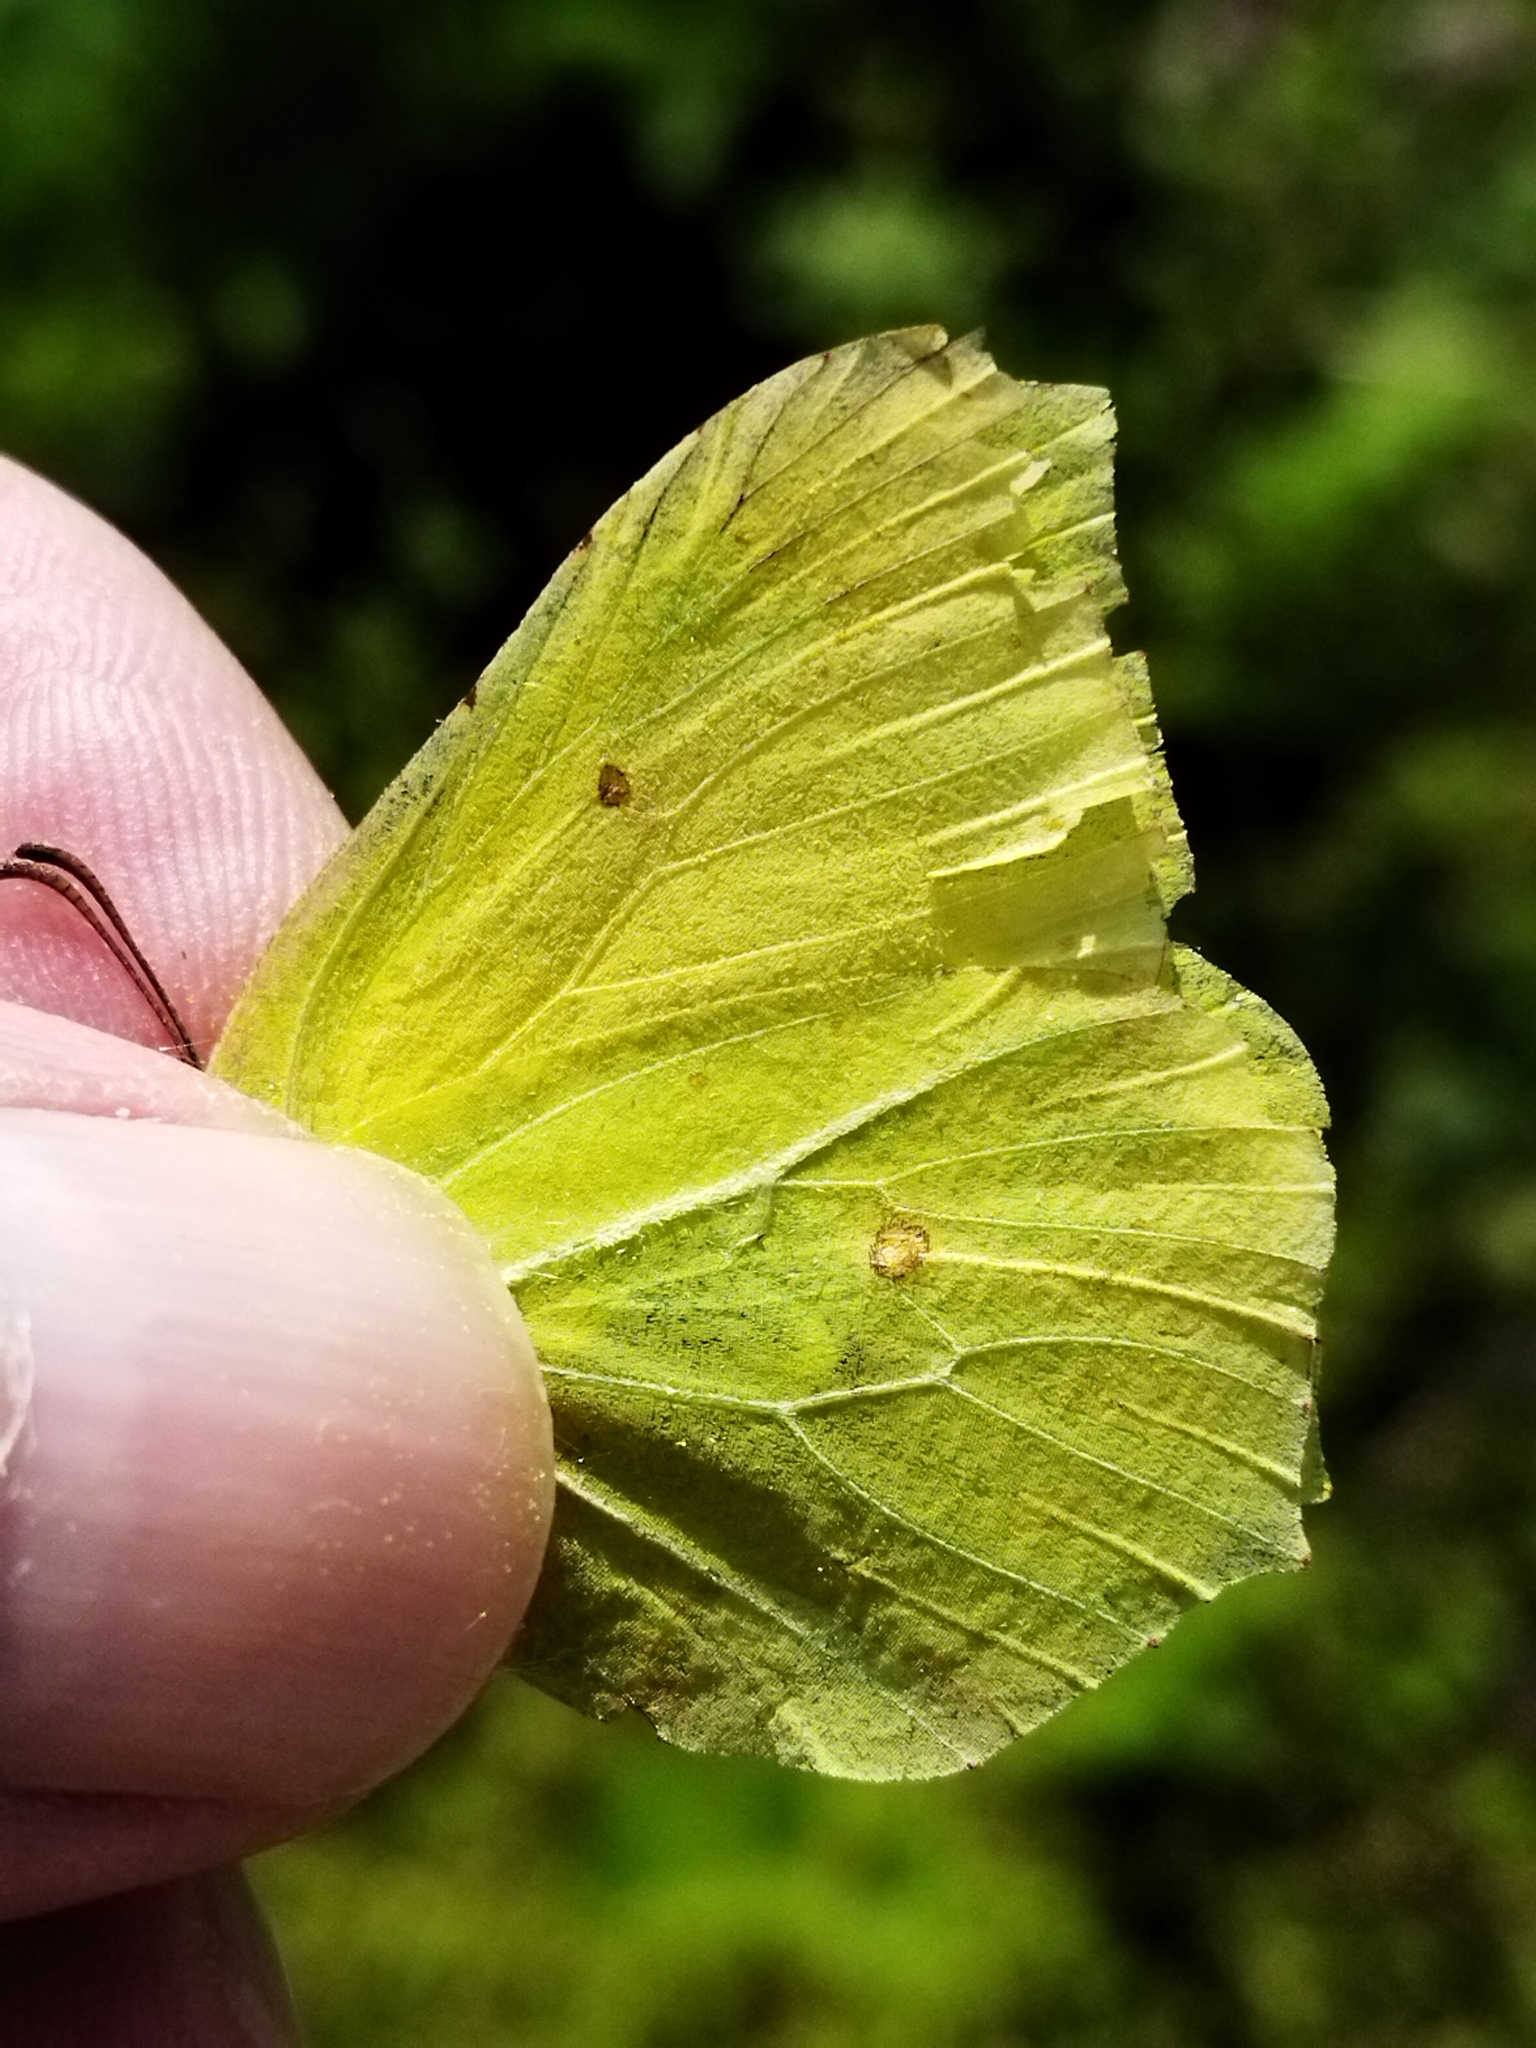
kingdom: Animalia
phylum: Arthropoda
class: Insecta
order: Lepidoptera
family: Pieridae
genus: Gonepteryx
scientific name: Gonepteryx rhamni
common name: Brimstone
